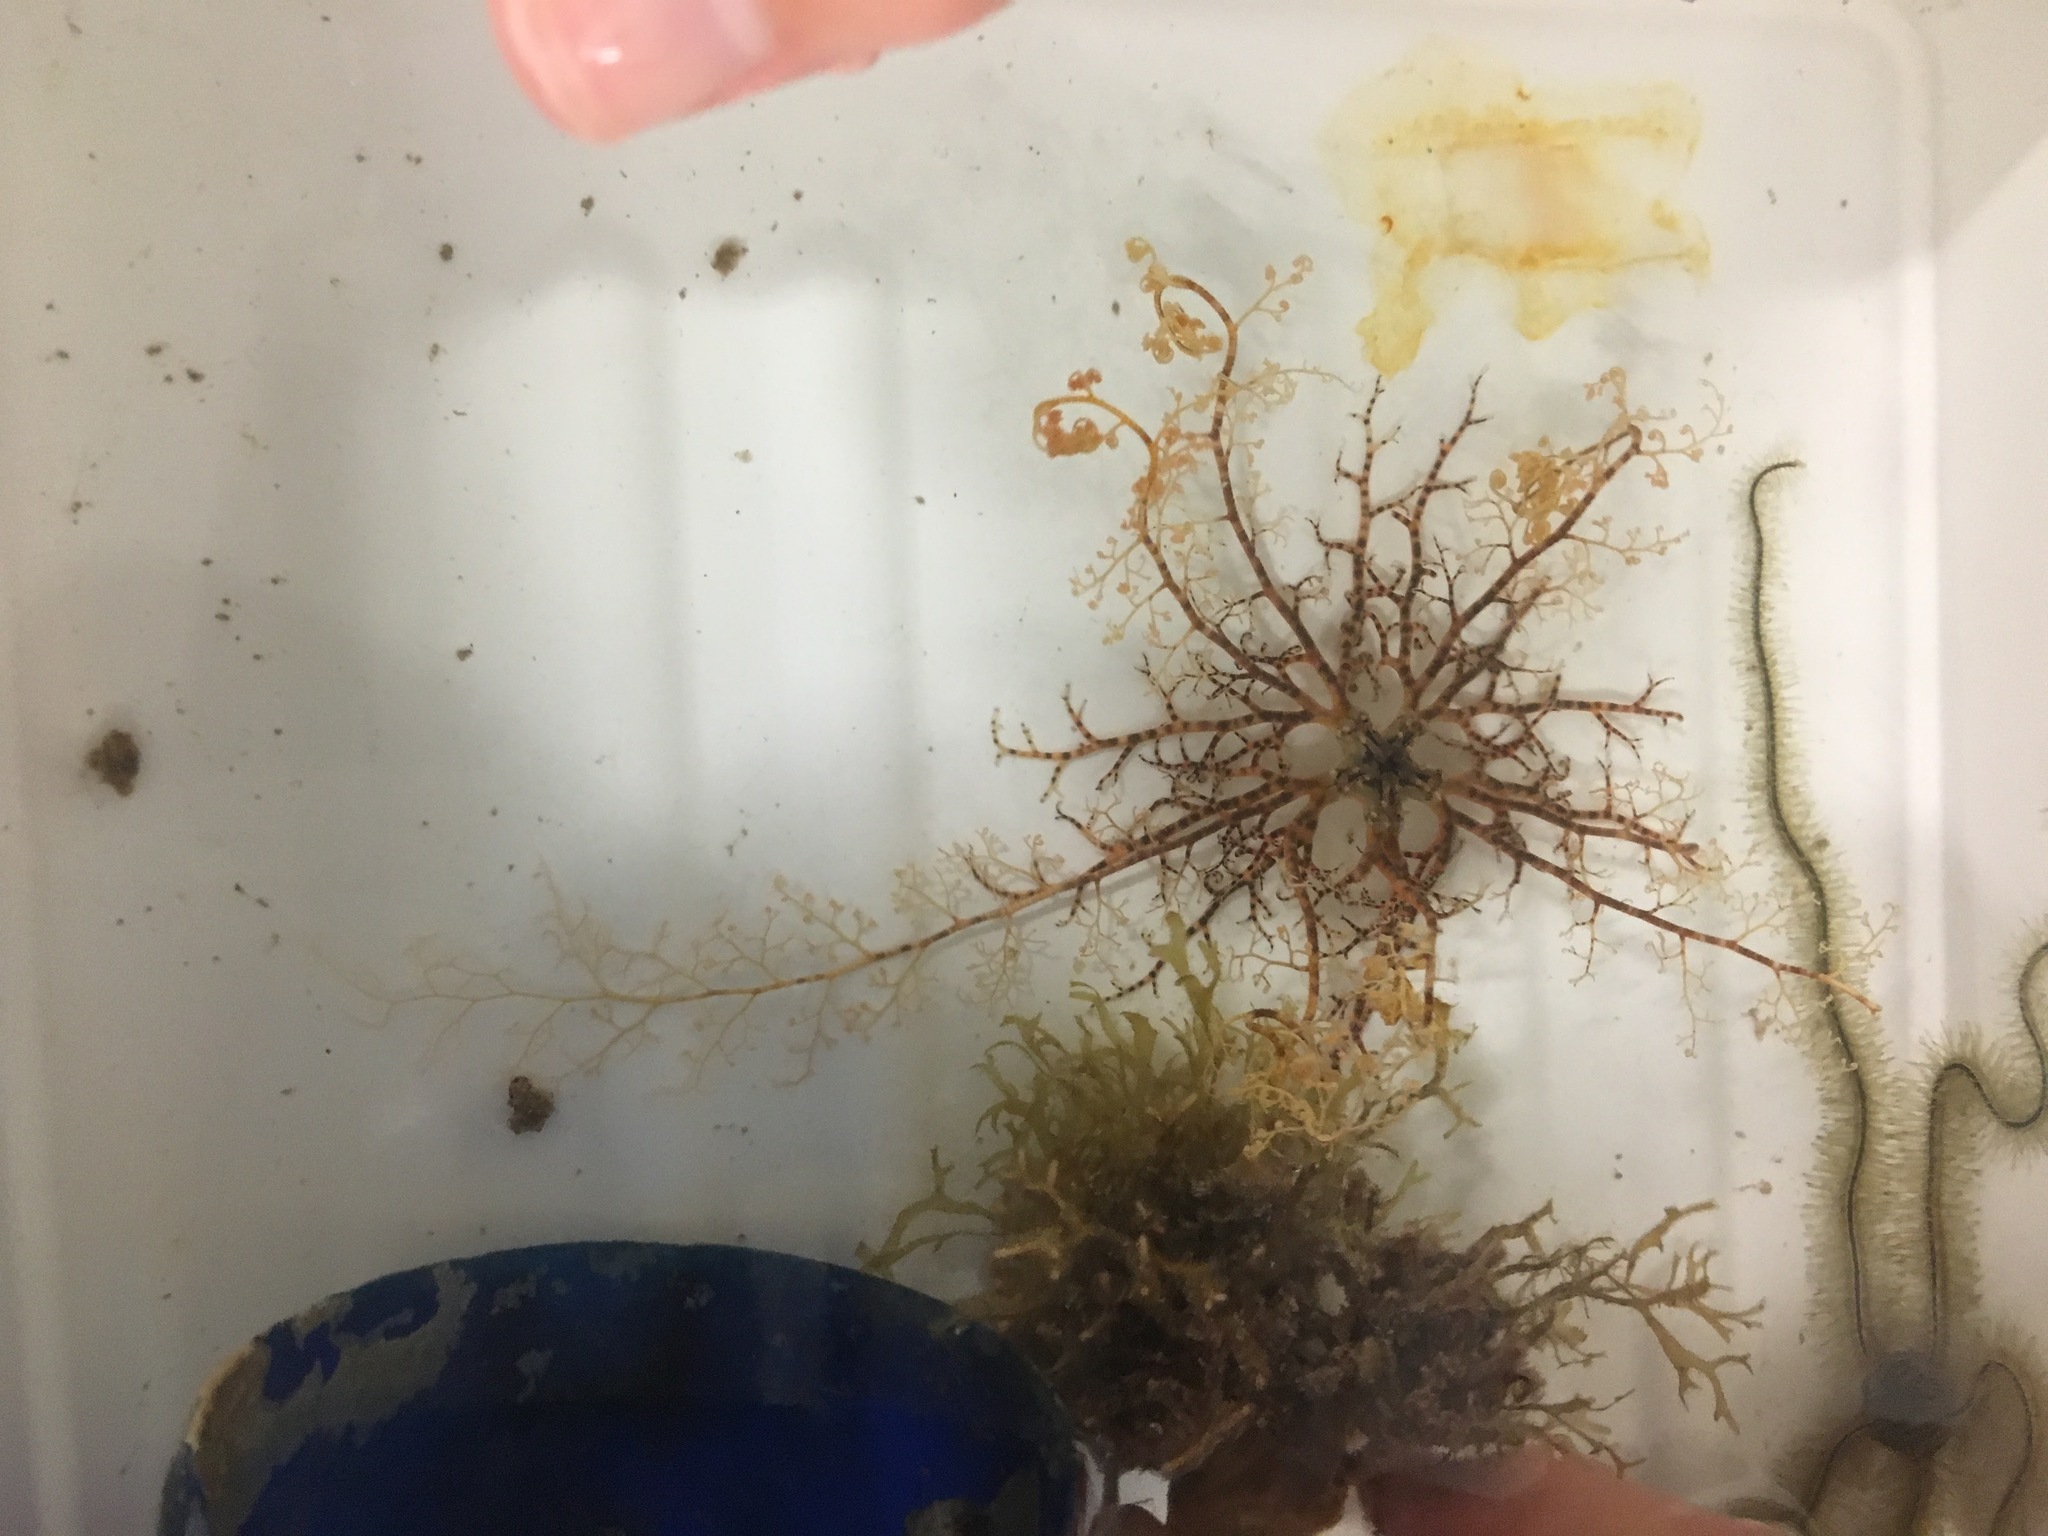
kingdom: Animalia
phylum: Echinodermata
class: Ophiuroidea
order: Euryalida
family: Gorgonocephalidae
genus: Astrophyton
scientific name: Astrophyton muricatum
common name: Basket starfish
